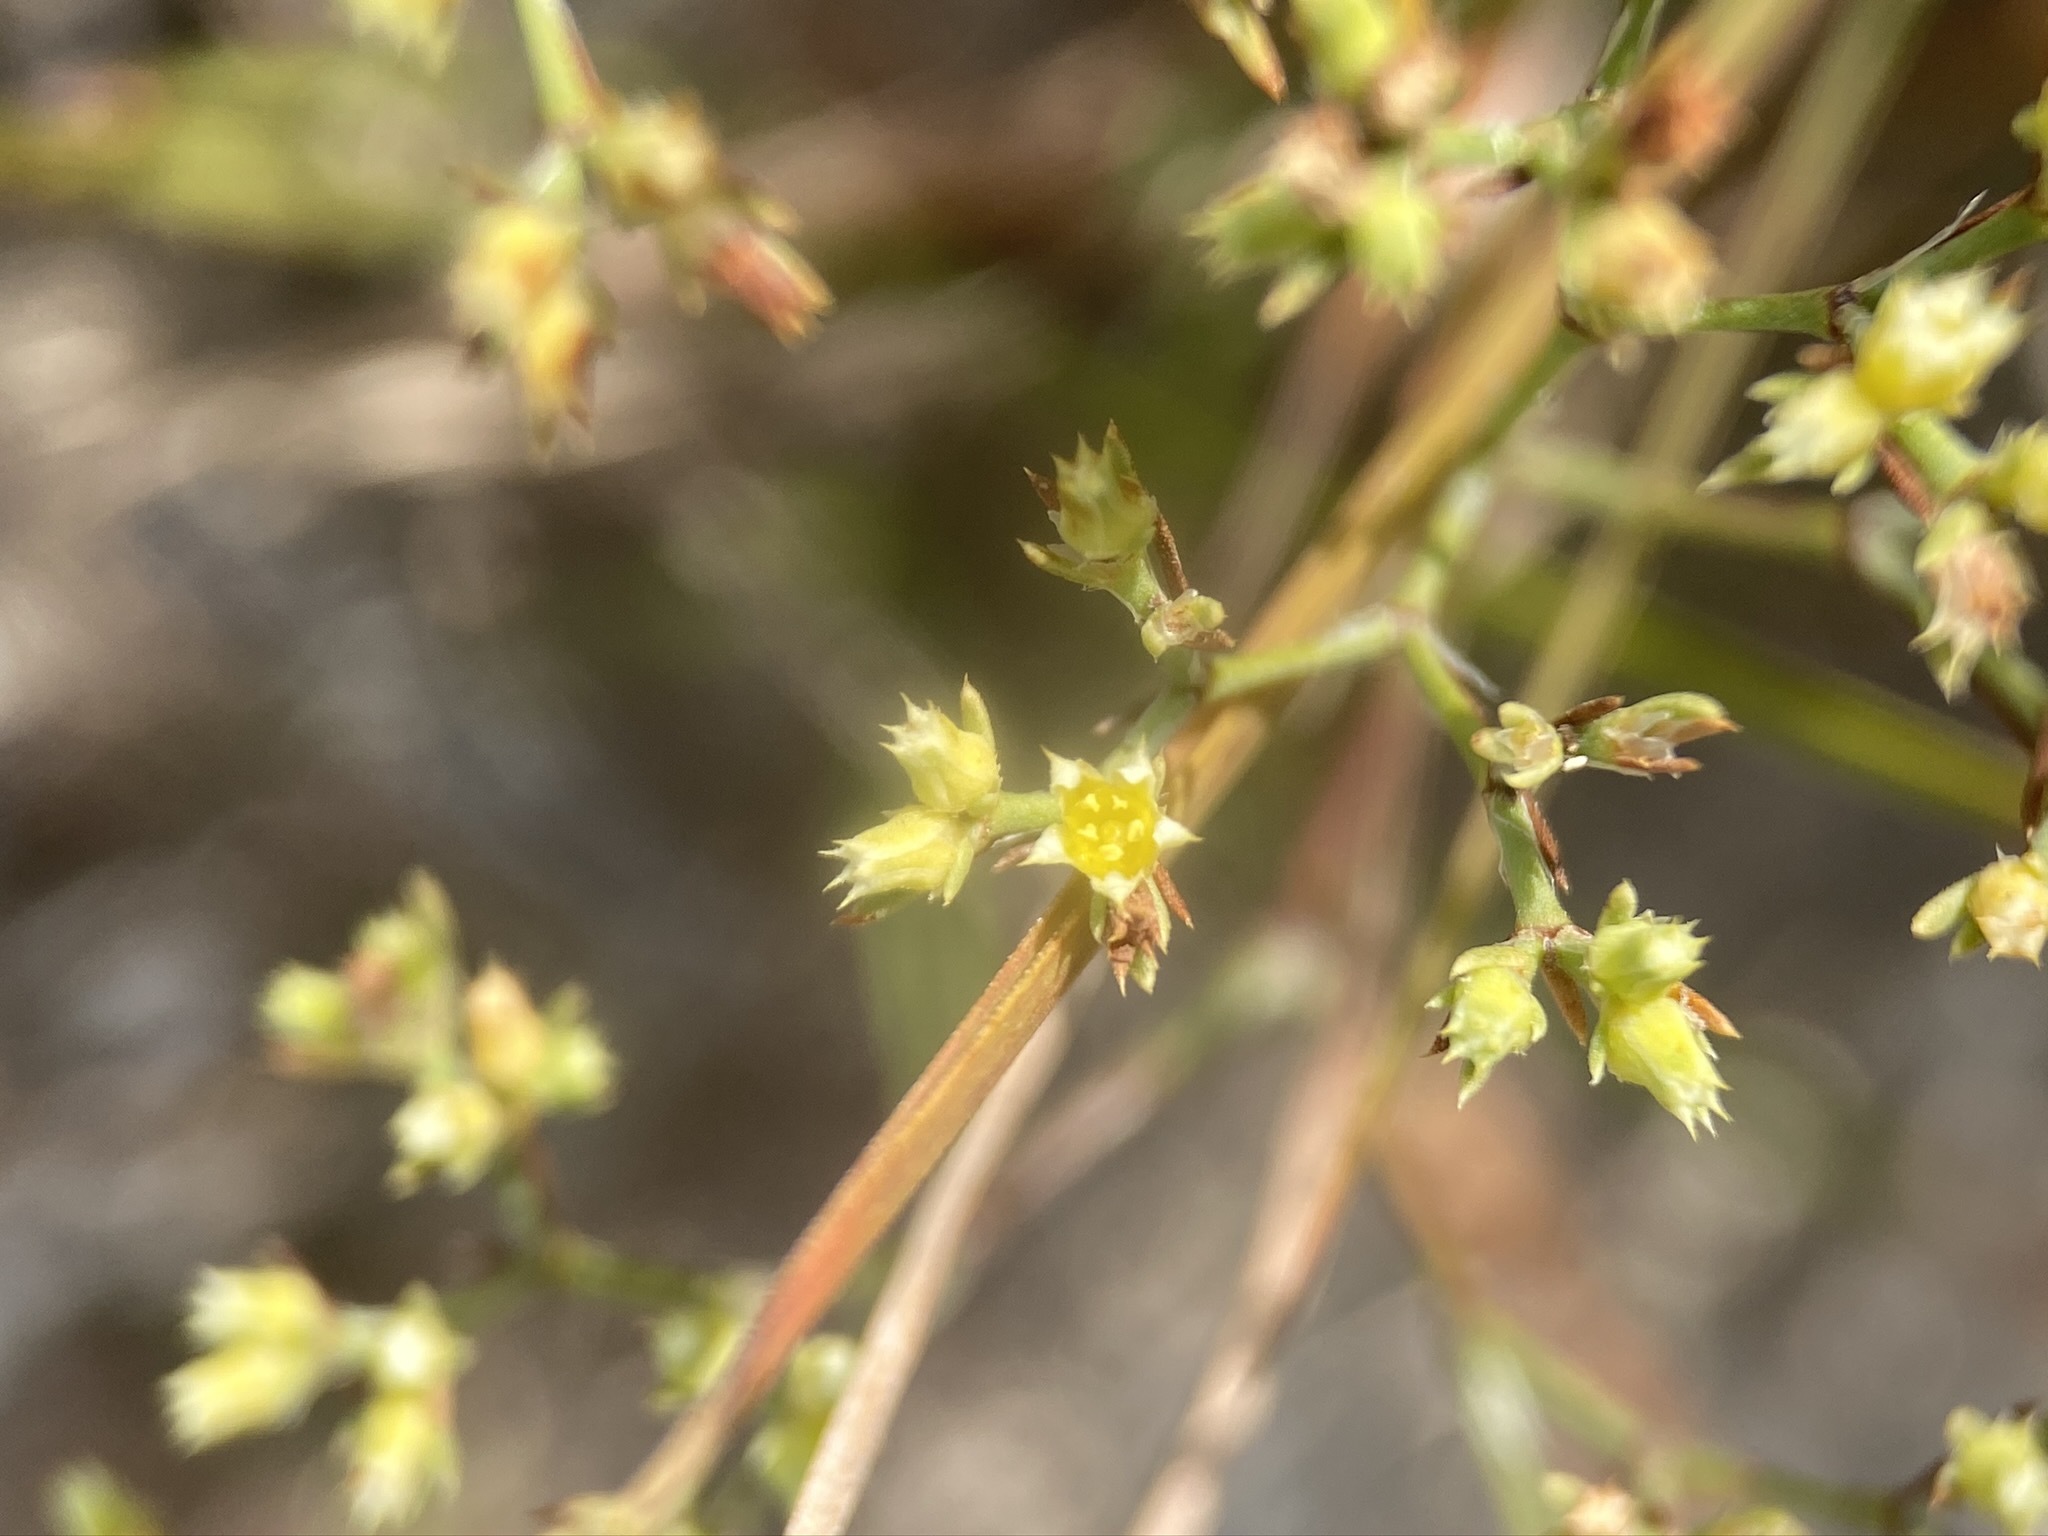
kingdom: Plantae
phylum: Tracheophyta
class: Magnoliopsida
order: Caryophyllales
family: Caryophyllaceae
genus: Paronychia
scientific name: Paronychia jamesii
